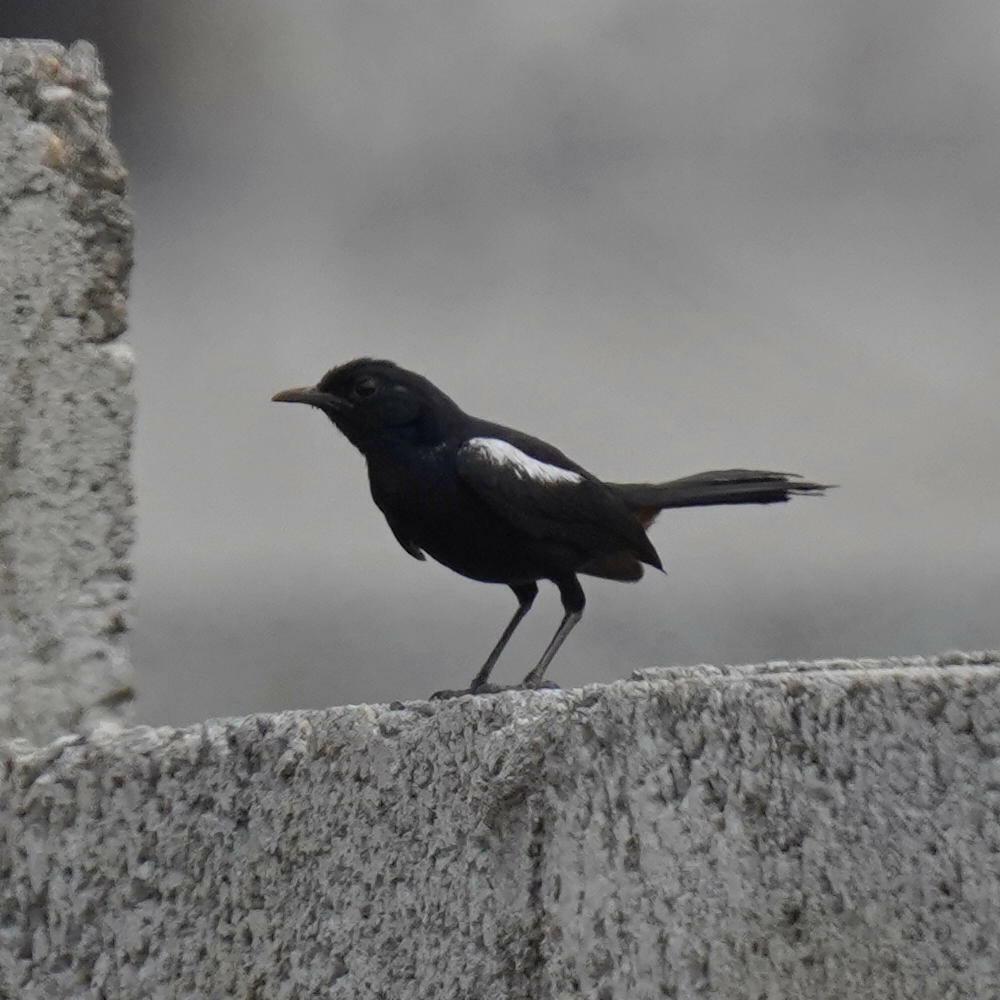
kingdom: Animalia
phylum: Chordata
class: Aves
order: Passeriformes
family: Muscicapidae
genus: Saxicoloides
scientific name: Saxicoloides fulicatus
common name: Indian robin
